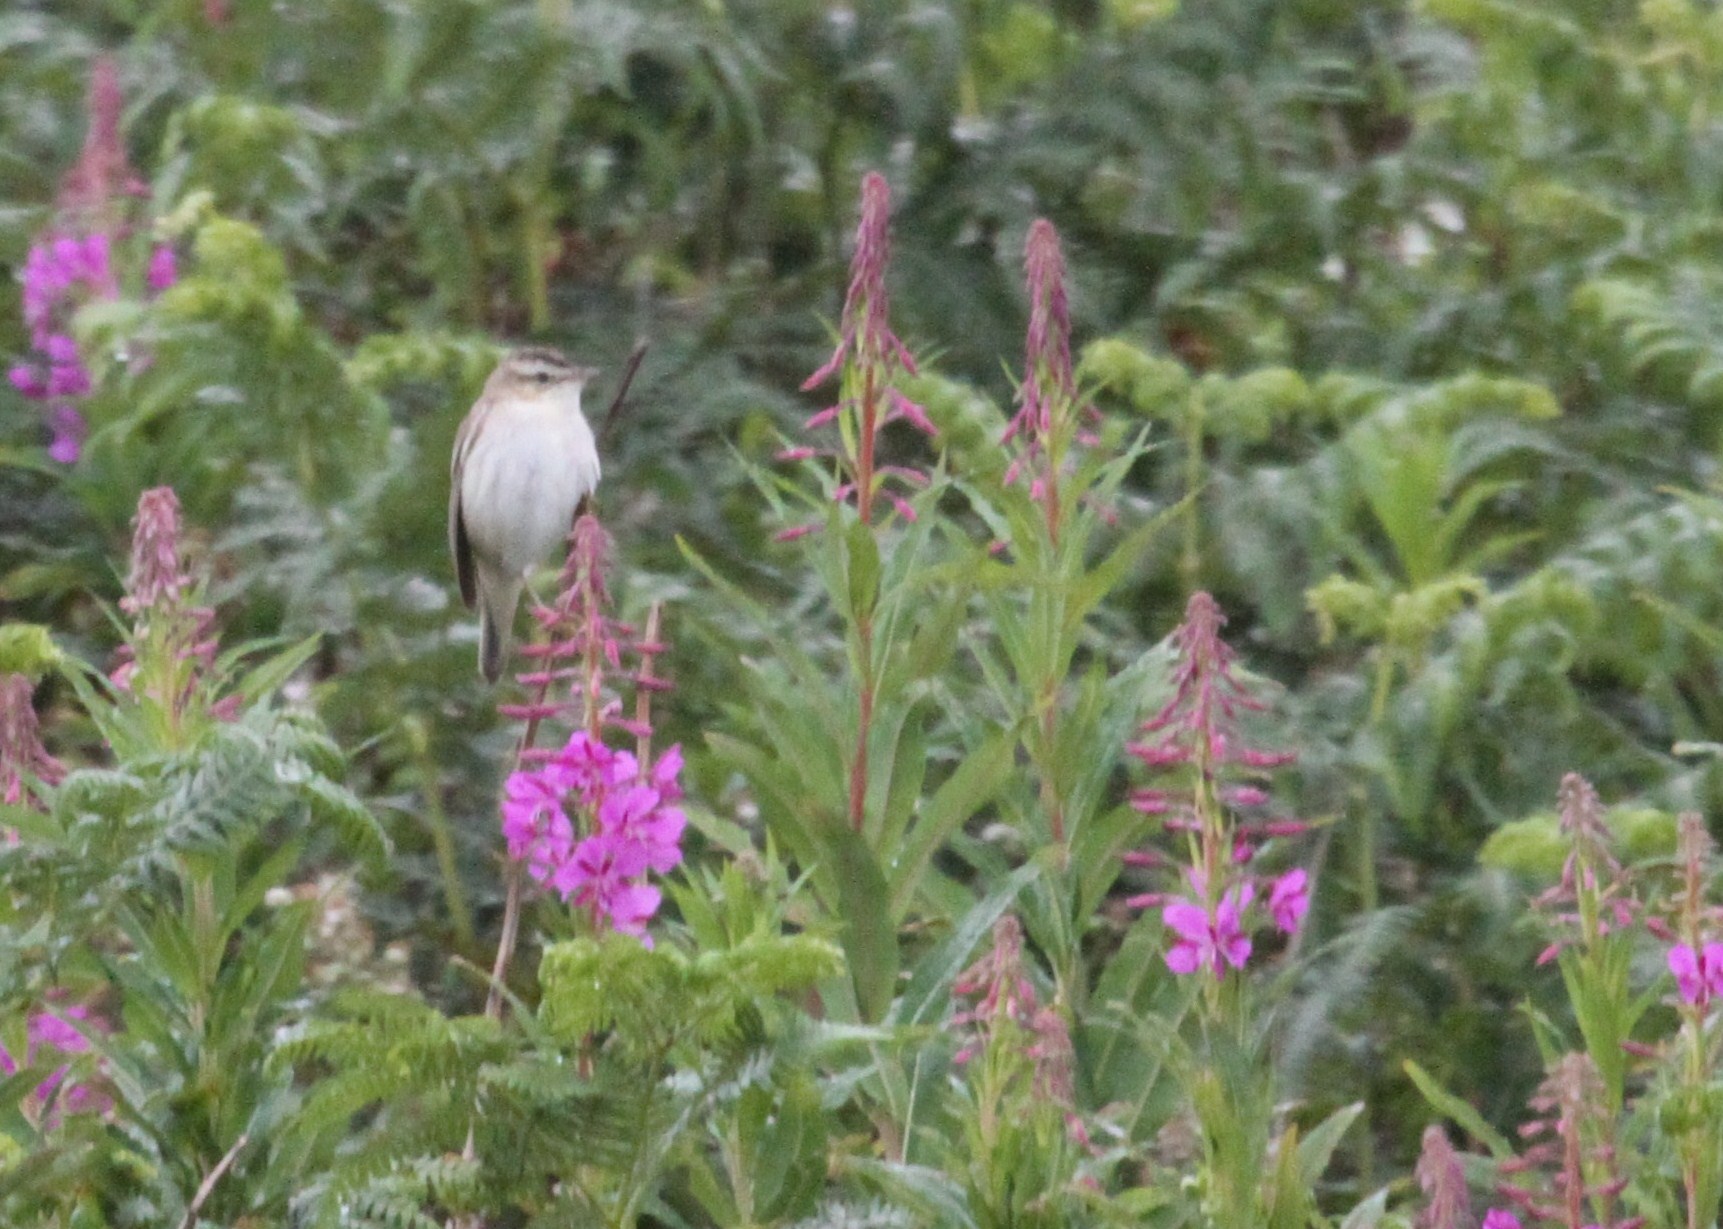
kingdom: Animalia
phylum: Chordata
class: Aves
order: Passeriformes
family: Acrocephalidae
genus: Acrocephalus
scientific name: Acrocephalus schoenobaenus
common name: Sedge warbler
